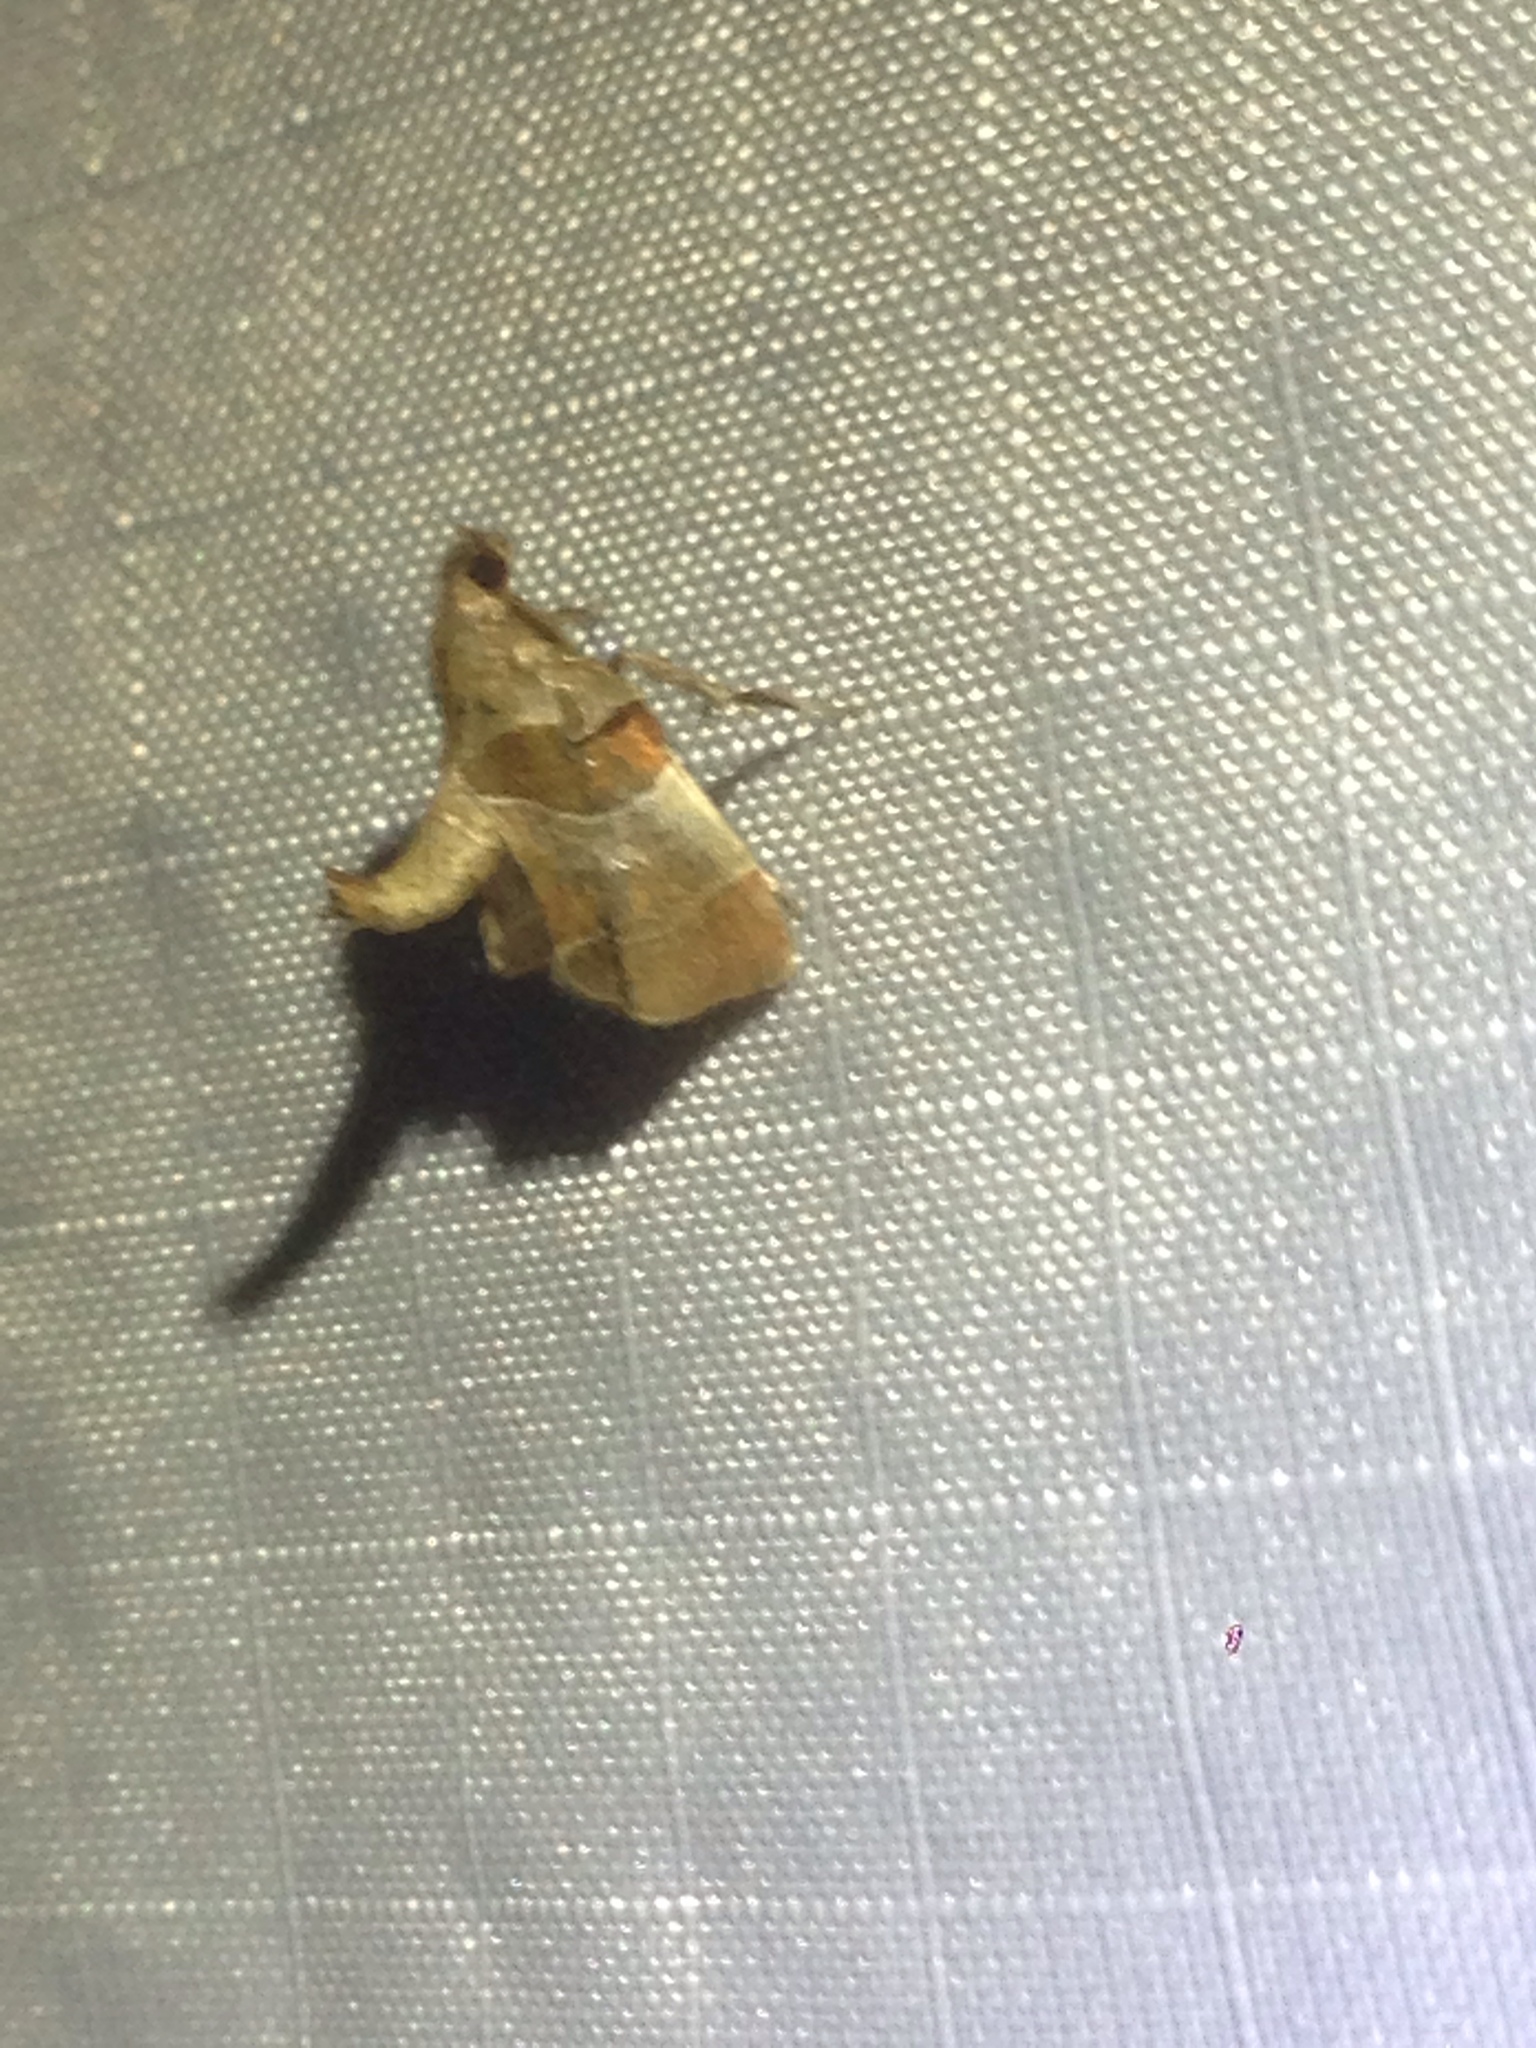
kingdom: Animalia
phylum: Arthropoda
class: Insecta
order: Lepidoptera
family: Pyralidae
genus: Tosale
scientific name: Tosale oviplagalis
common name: Dimorphic tosale moth
